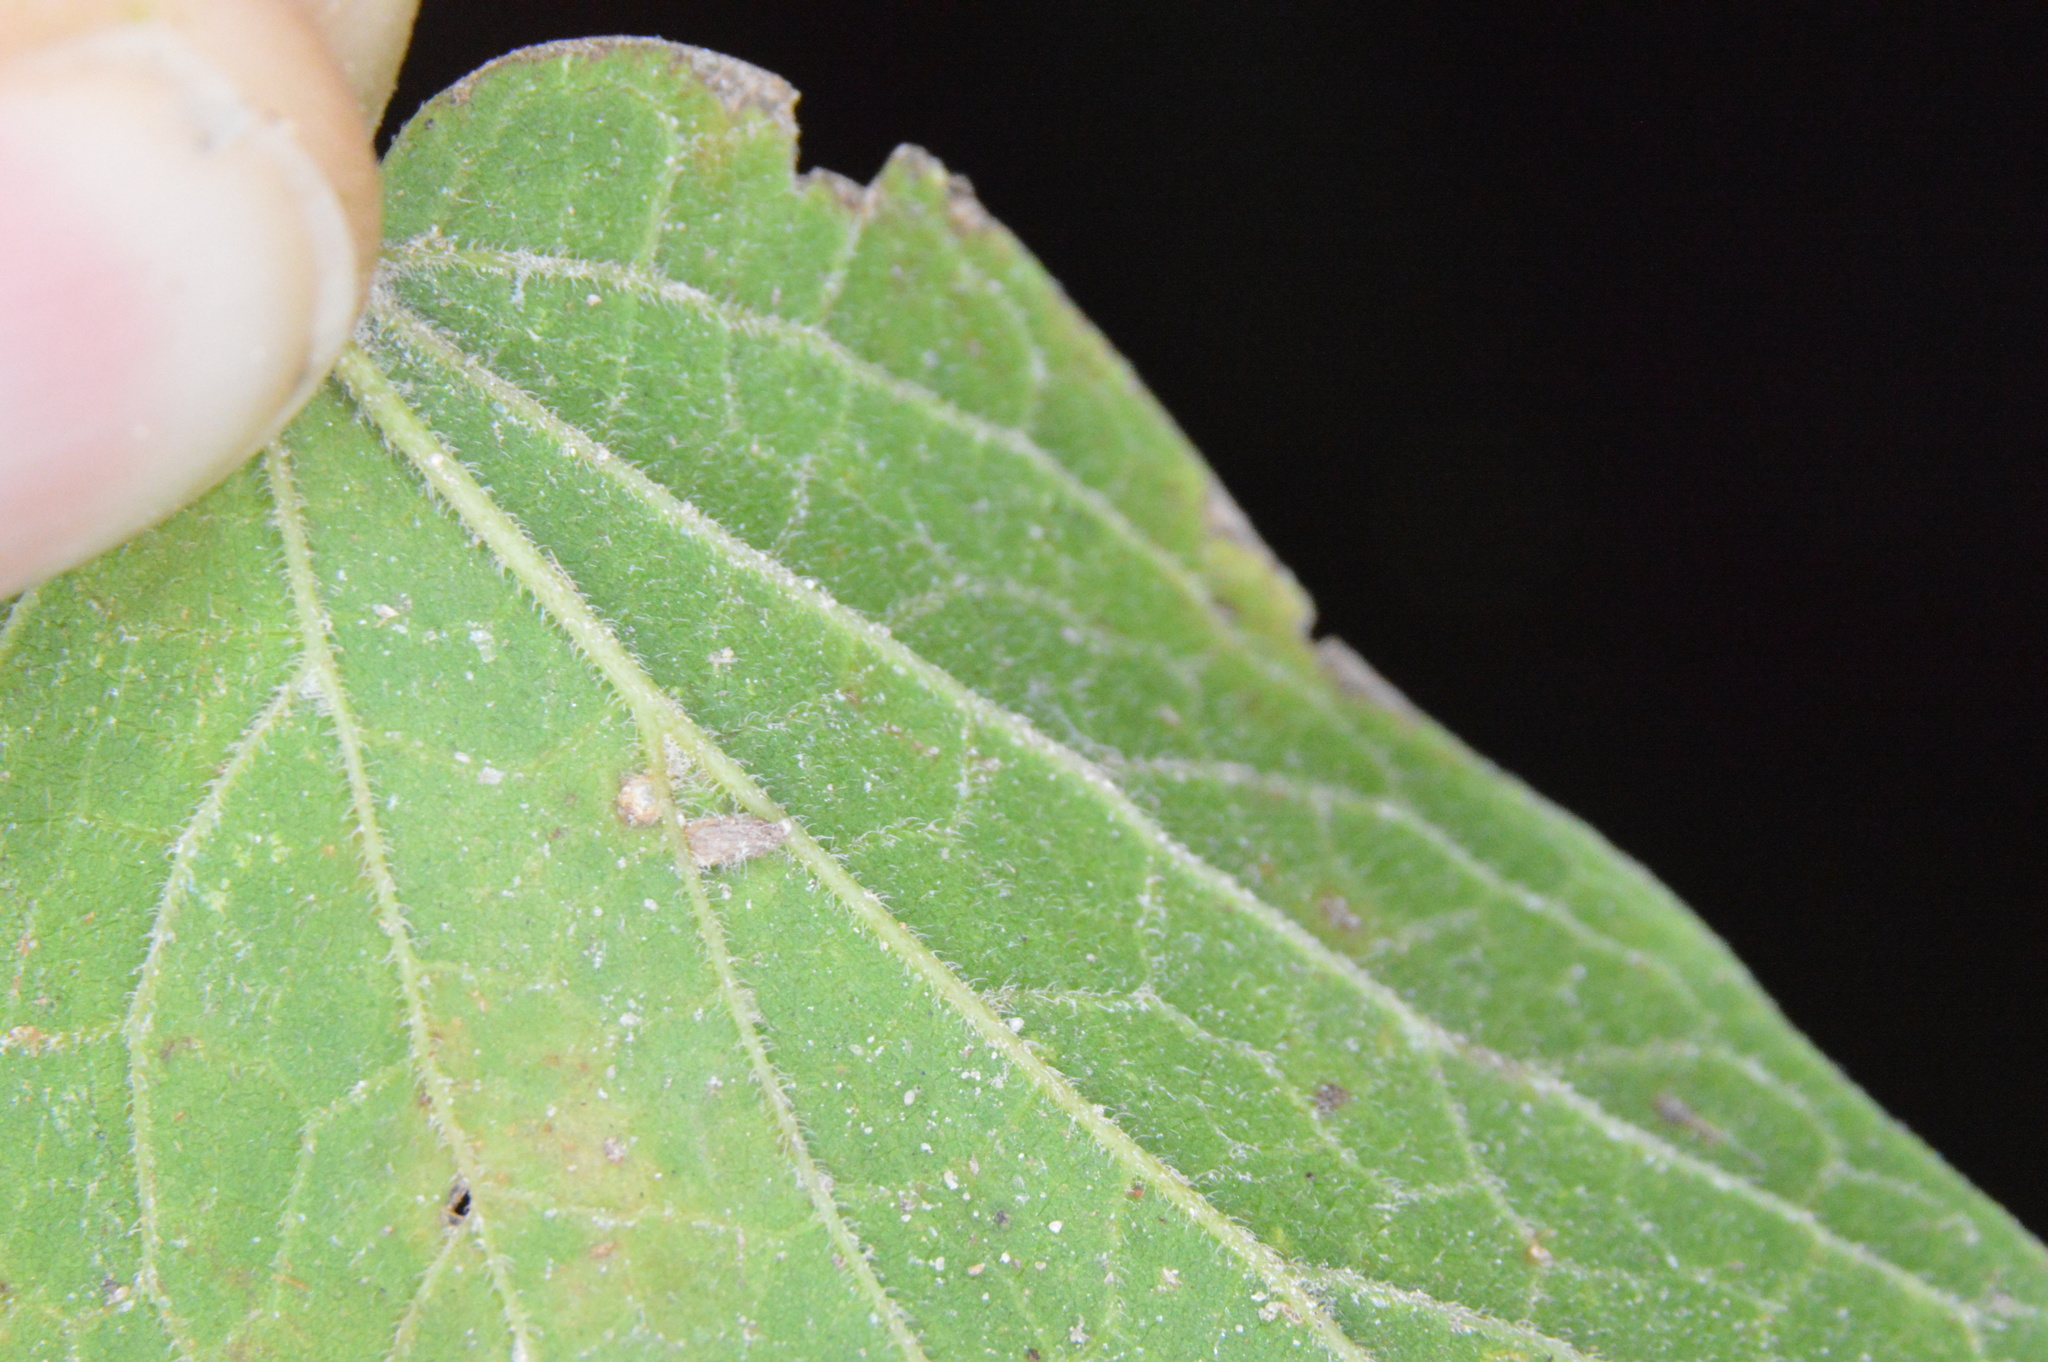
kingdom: Animalia
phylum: Arthropoda
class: Insecta
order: Diptera
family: Cecidomyiidae
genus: Celticecis
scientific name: Celticecis supina
